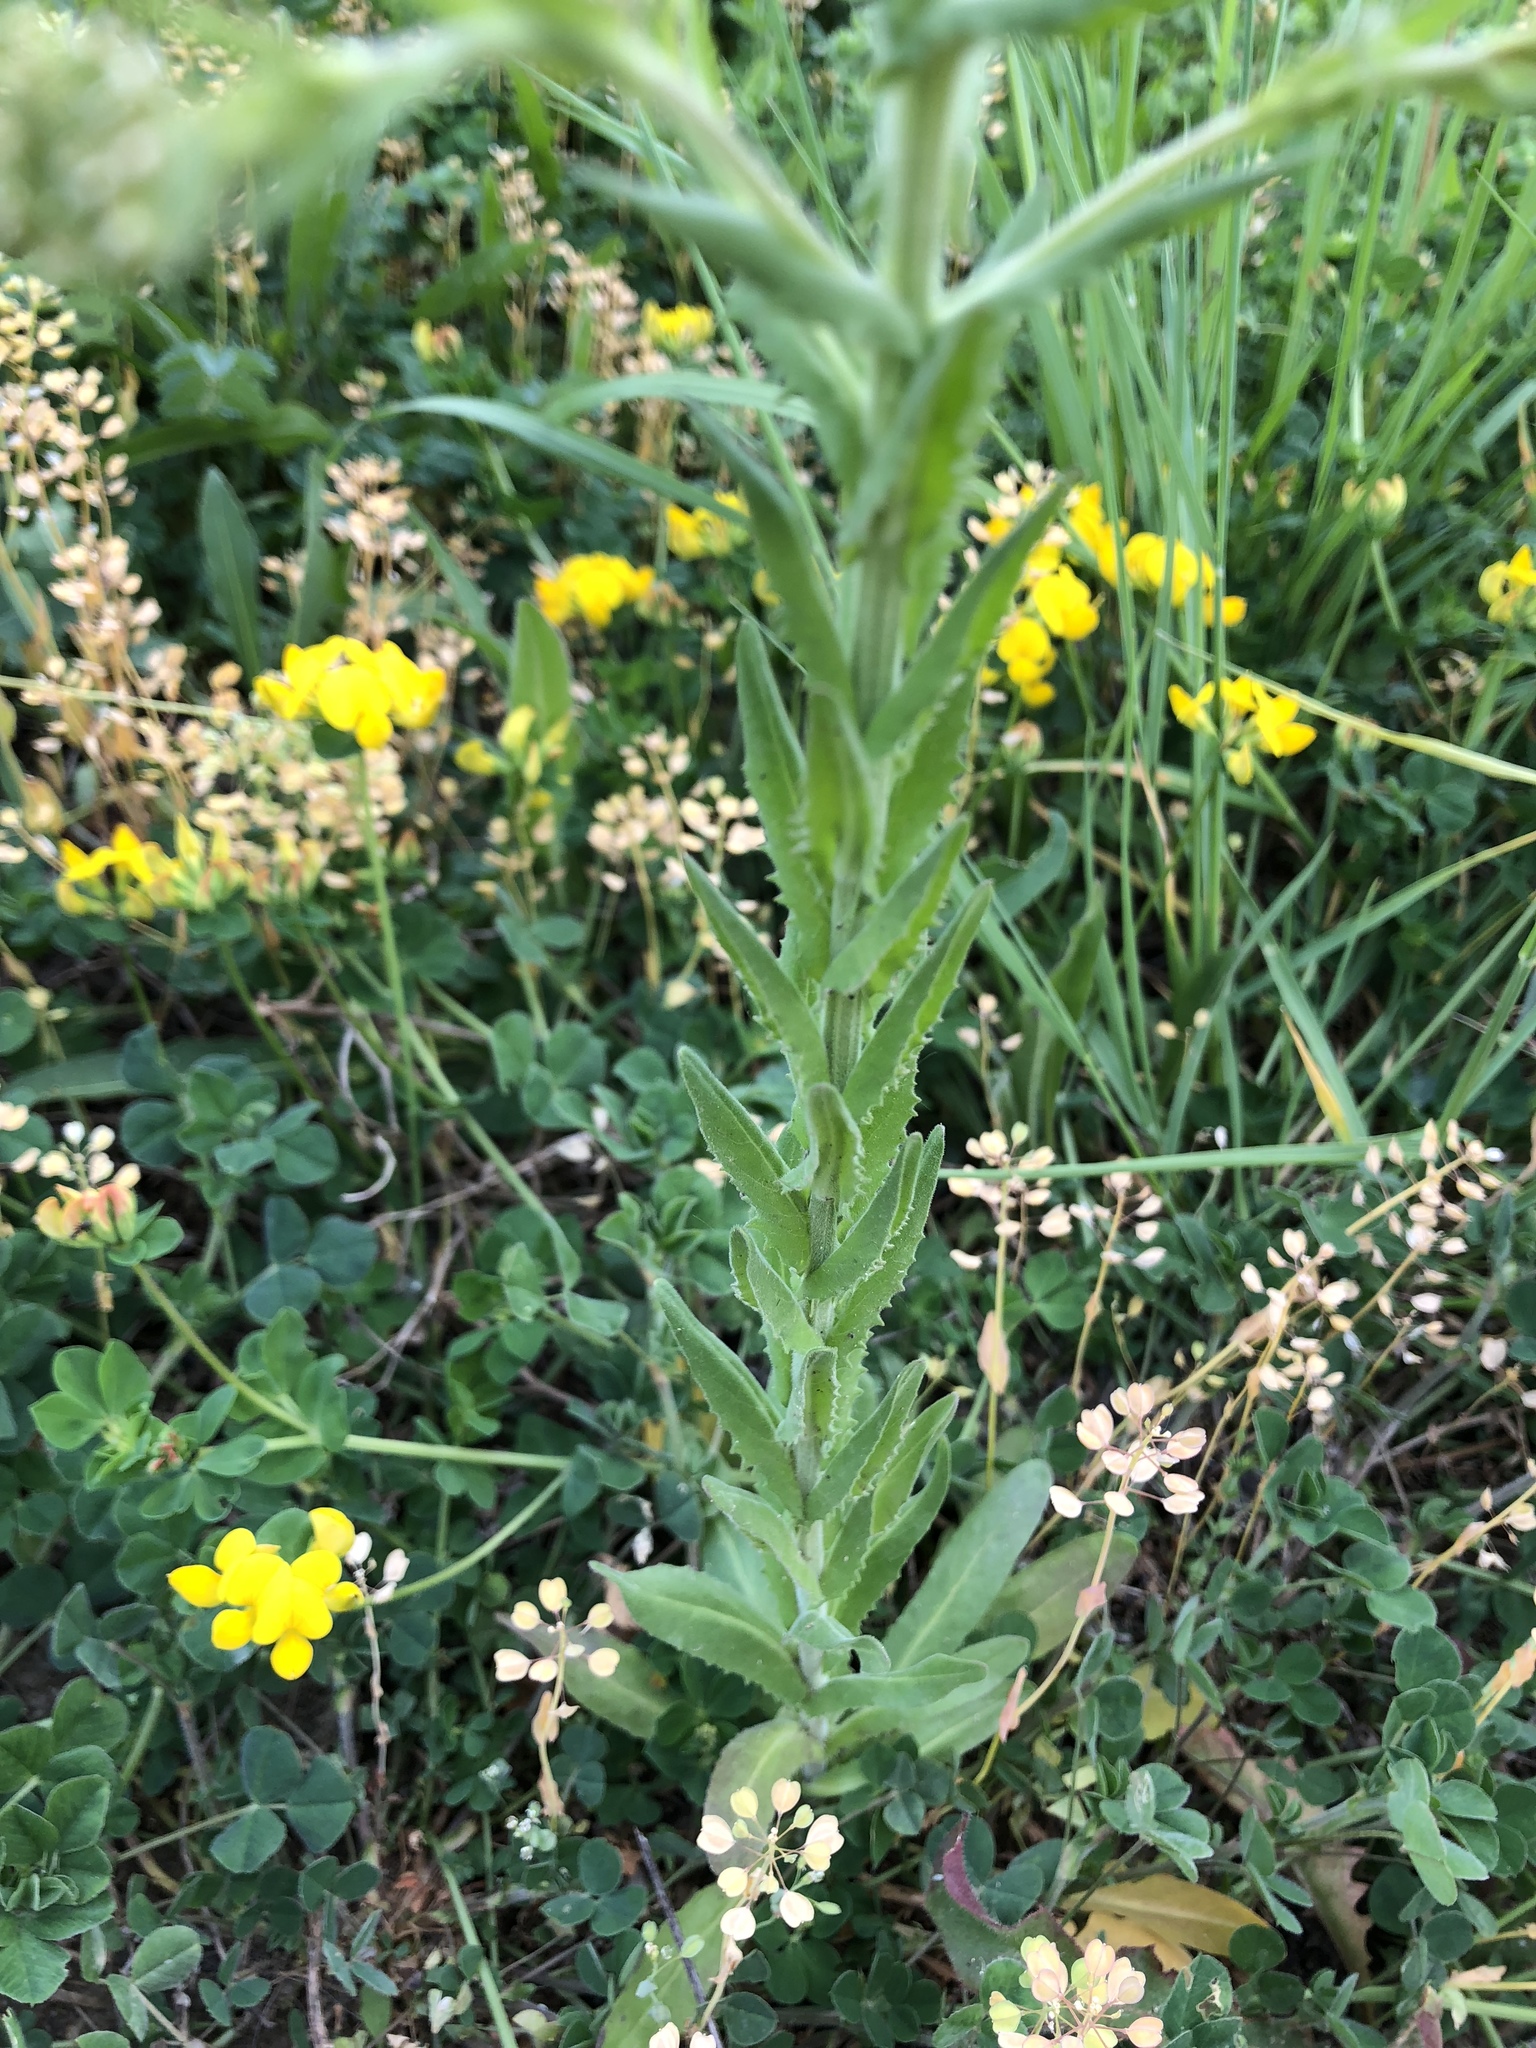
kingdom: Plantae
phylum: Tracheophyta
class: Magnoliopsida
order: Brassicales
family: Brassicaceae
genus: Lepidium
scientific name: Lepidium campestre
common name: Field pepperwort
